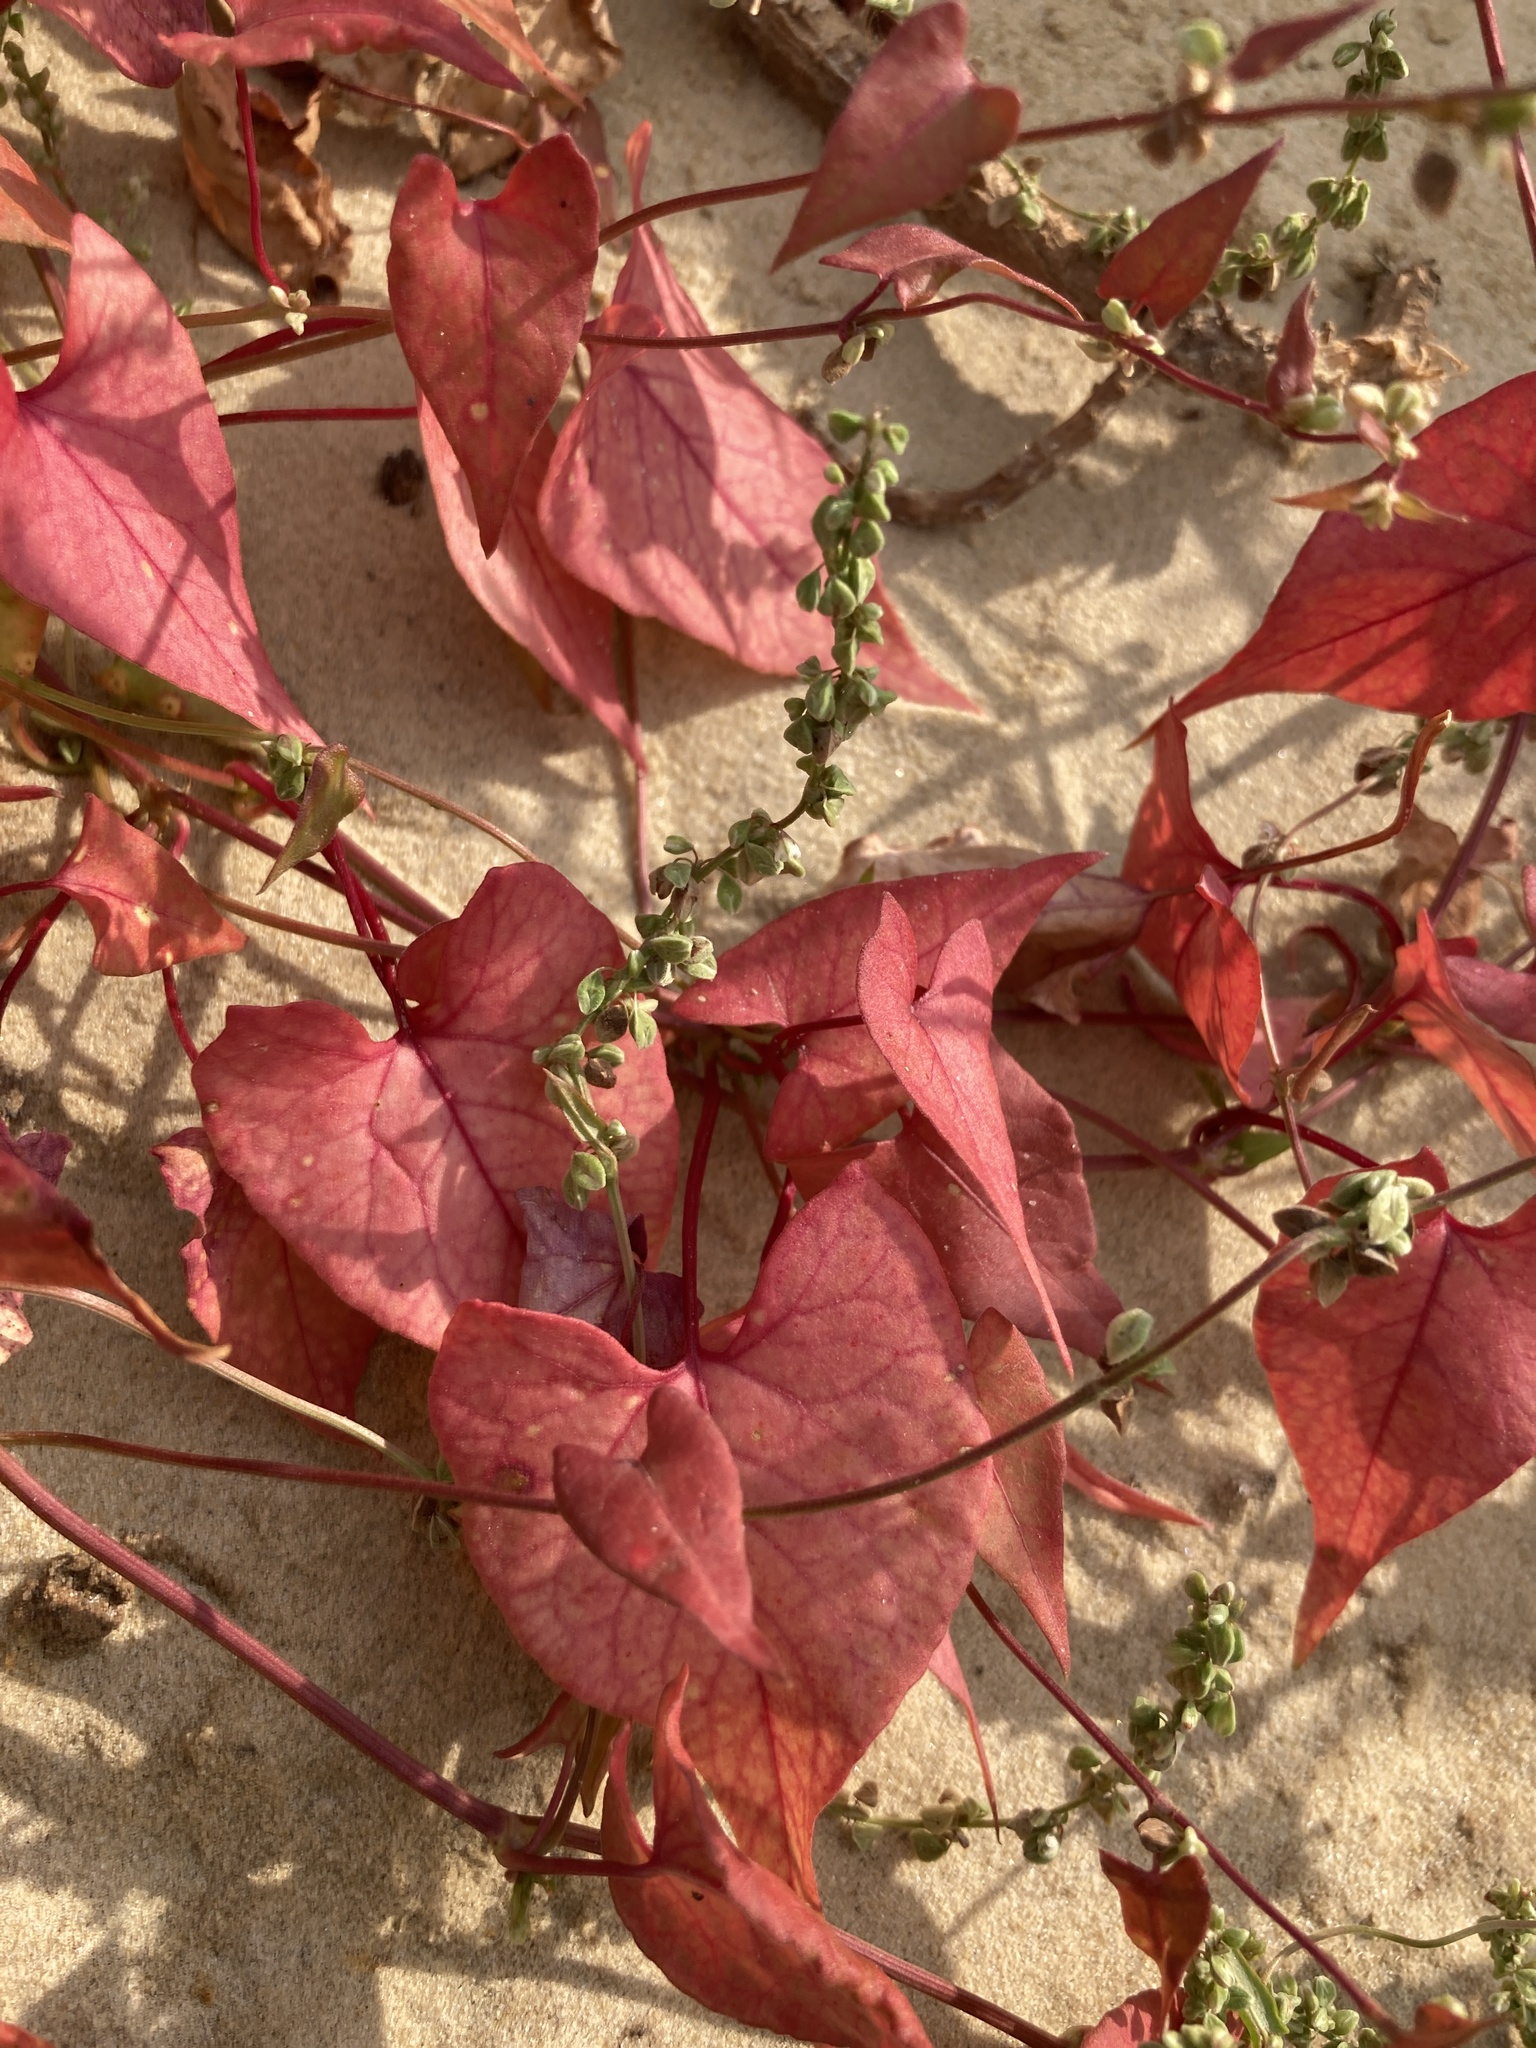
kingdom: Plantae
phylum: Tracheophyta
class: Magnoliopsida
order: Caryophyllales
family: Polygonaceae
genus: Fallopia
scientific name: Fallopia convolvulus
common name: Black bindweed
